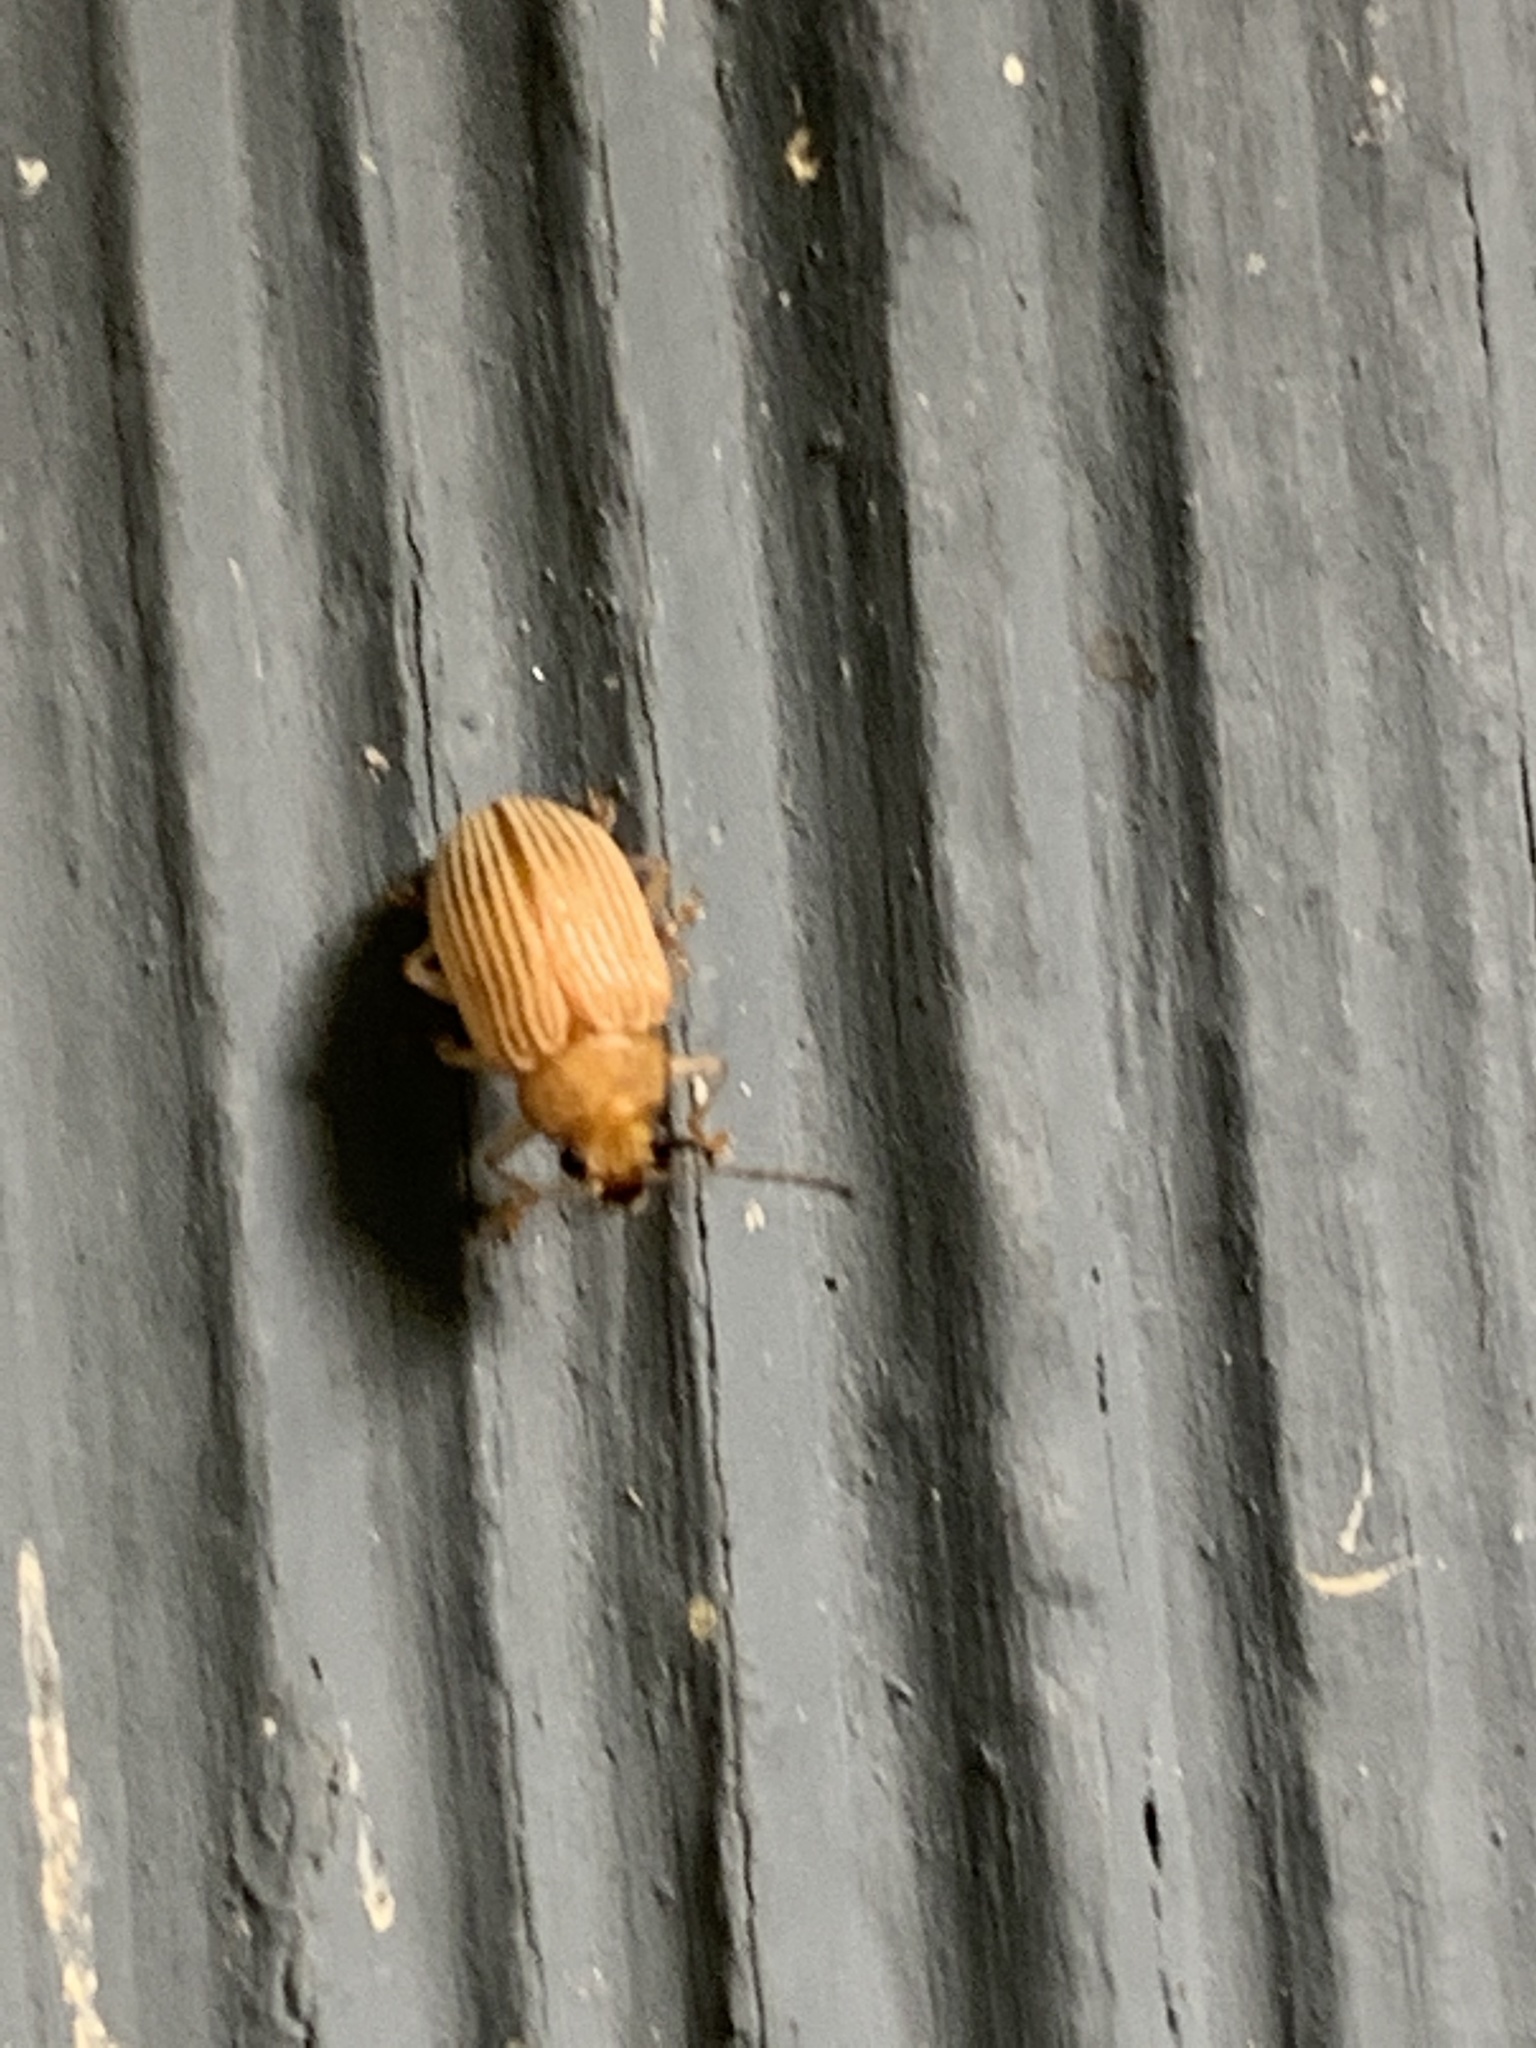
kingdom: Animalia
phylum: Arthropoda
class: Insecta
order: Coleoptera
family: Chrysomelidae
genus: Colaspis
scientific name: Colaspis brunnea
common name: Grape colaspis
